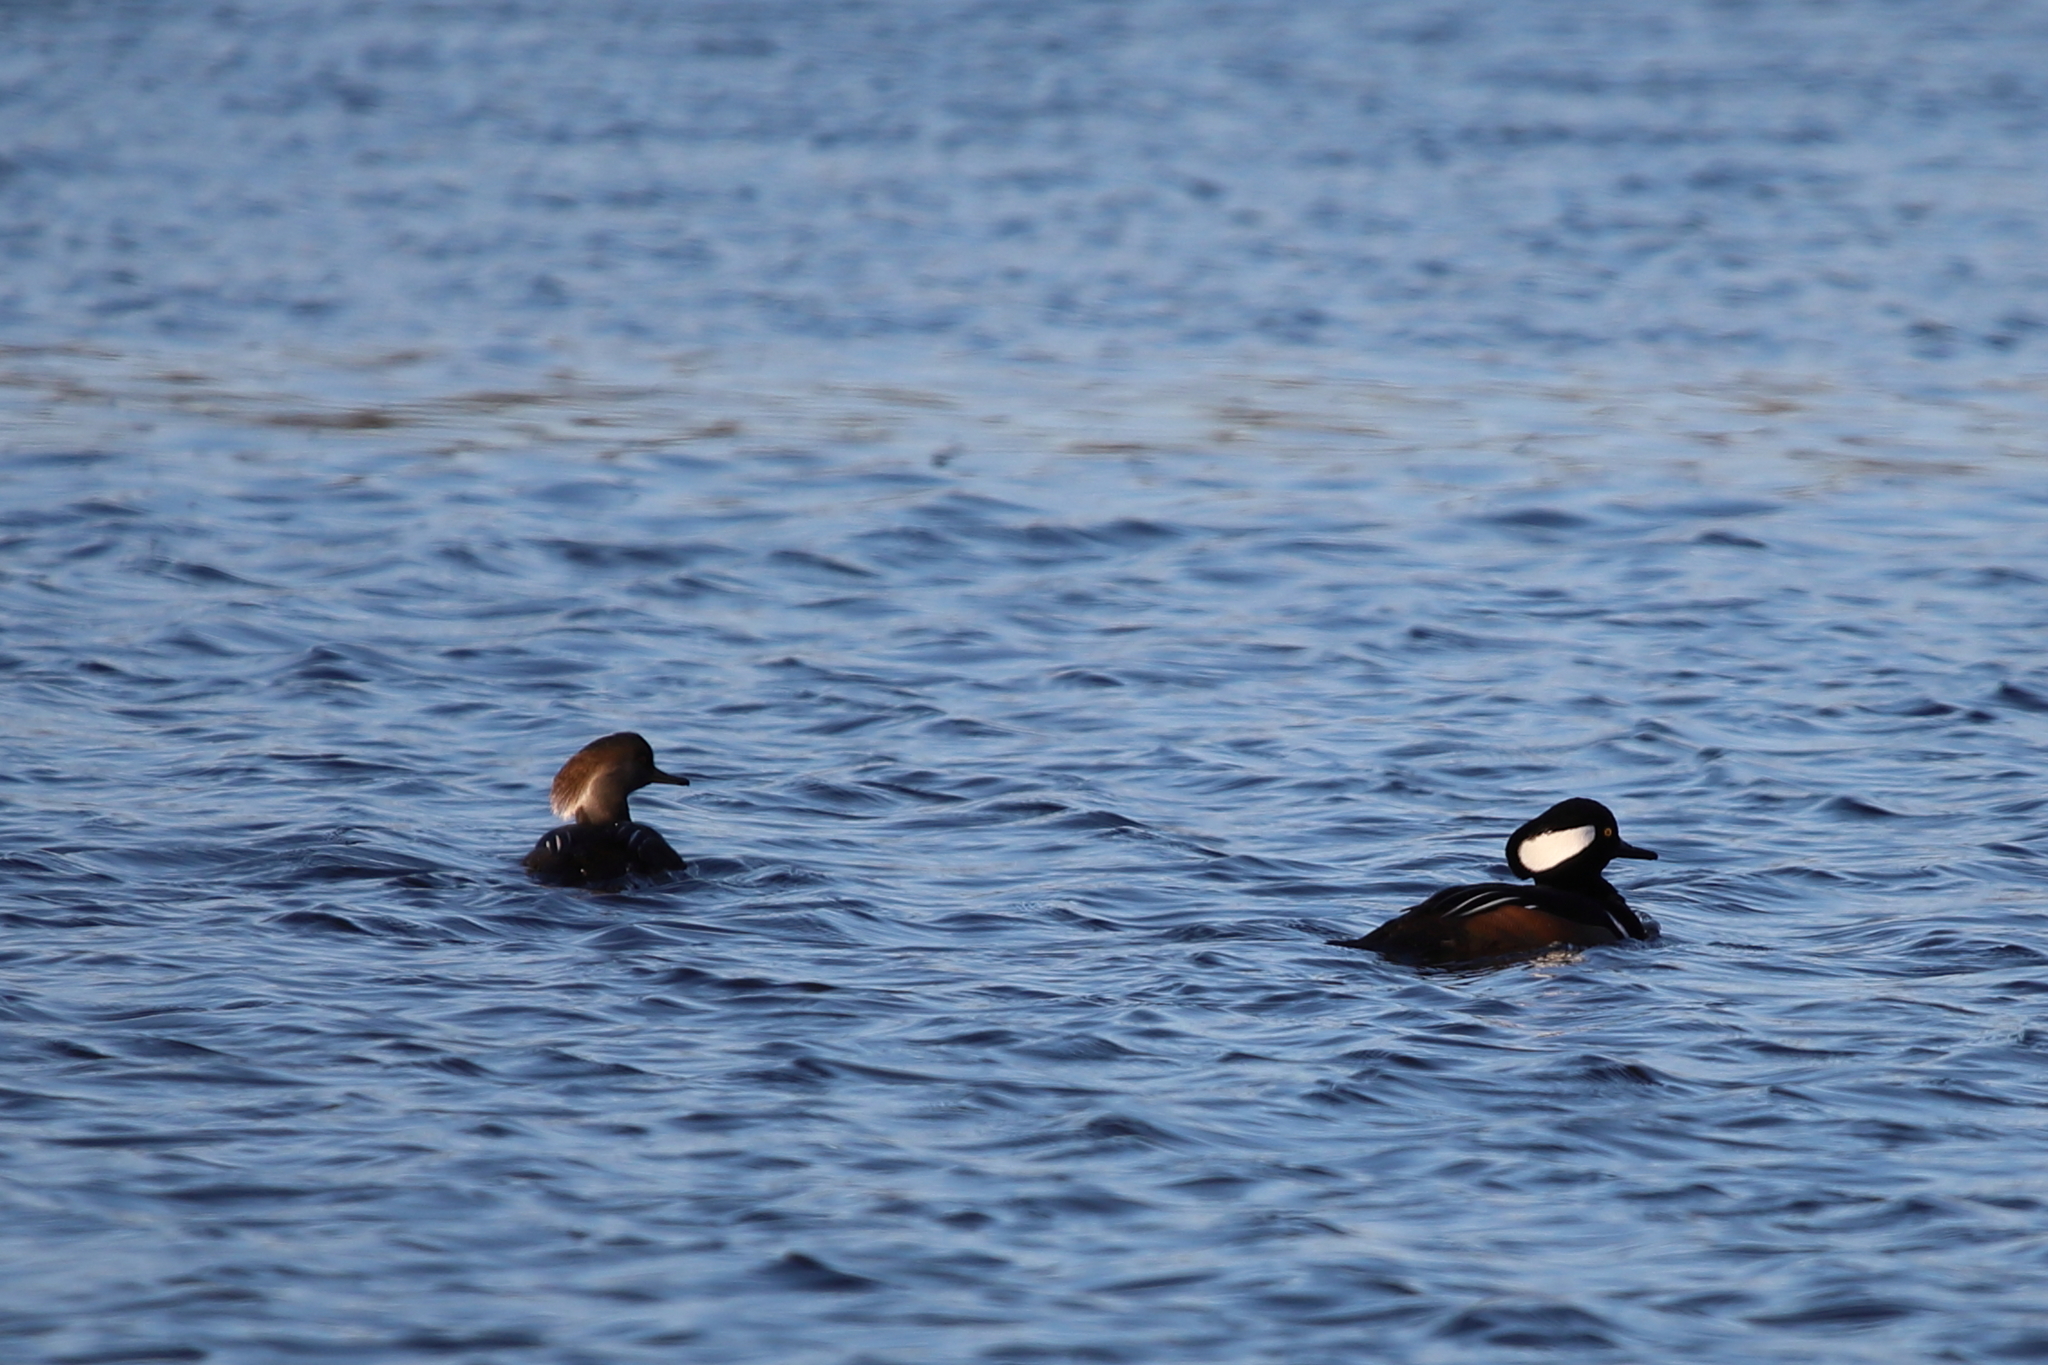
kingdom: Animalia
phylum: Chordata
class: Aves
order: Anseriformes
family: Anatidae
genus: Lophodytes
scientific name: Lophodytes cucullatus
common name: Hooded merganser
